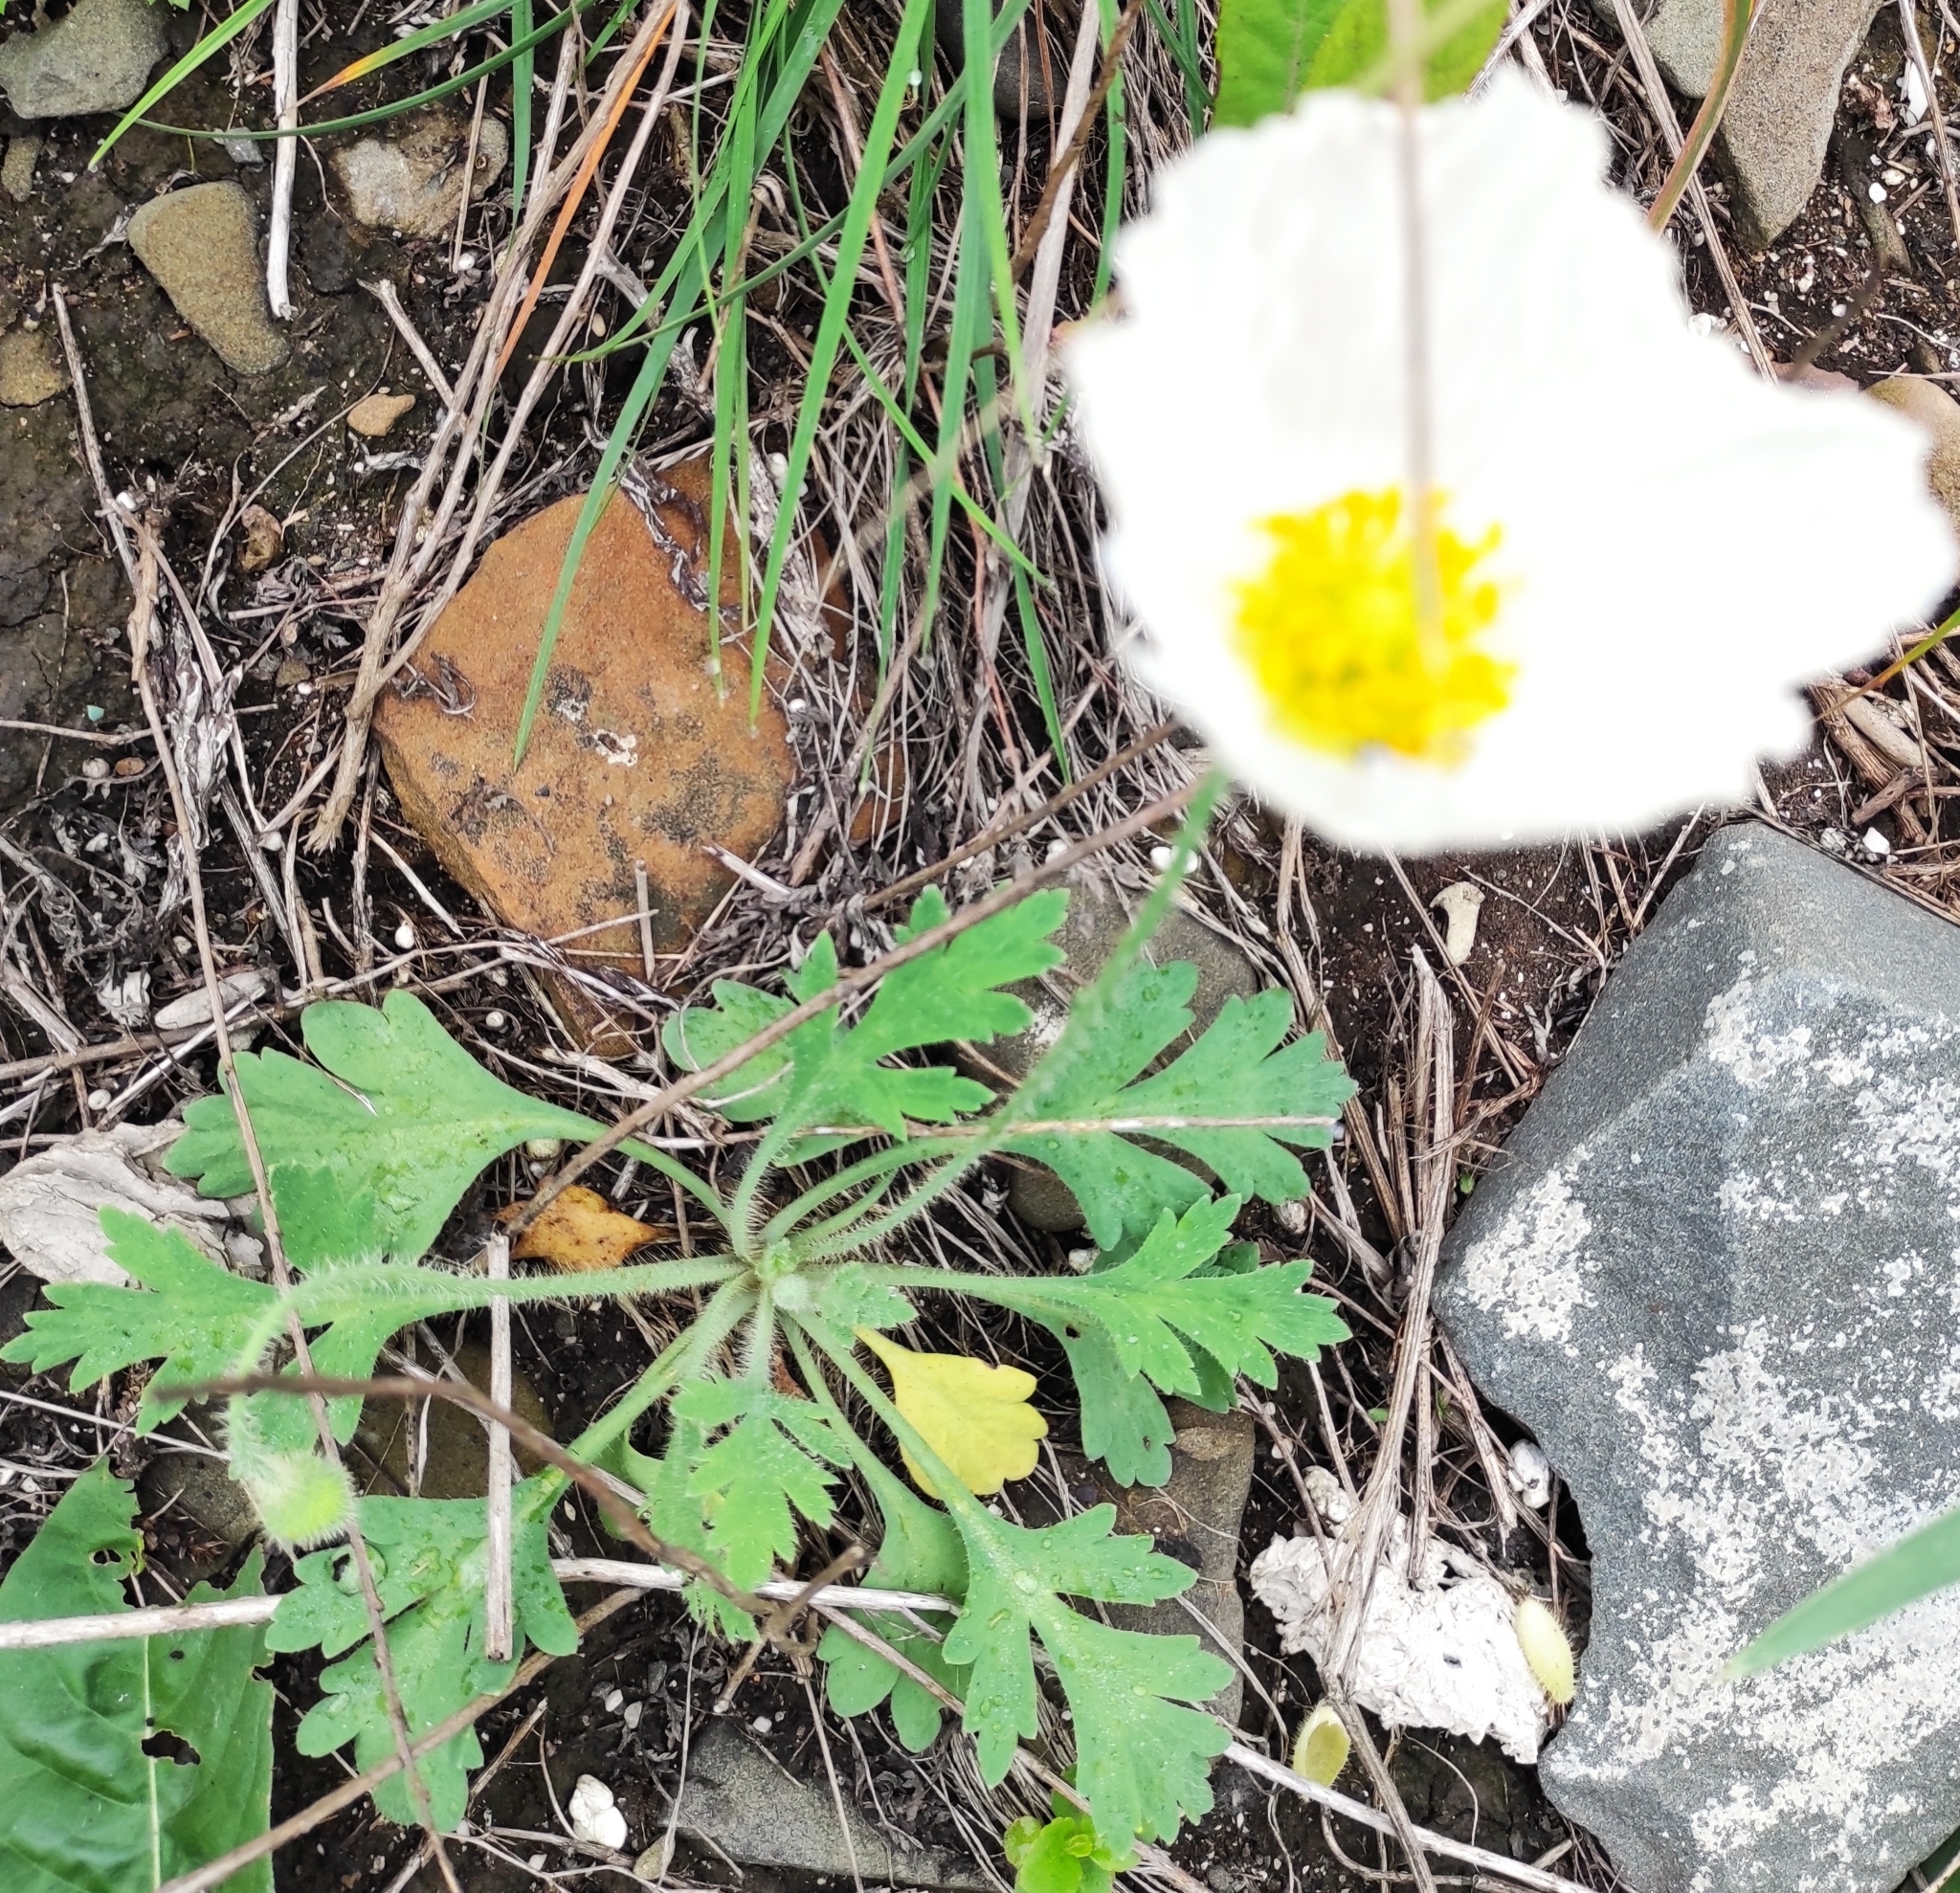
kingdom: Plantae
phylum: Tracheophyta
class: Magnoliopsida
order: Ranunculales
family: Papaveraceae
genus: Papaver
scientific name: Papaver sokolovskajae
